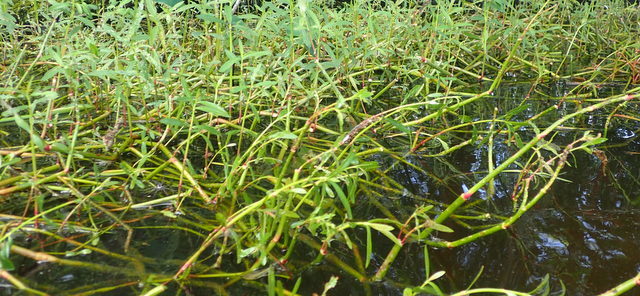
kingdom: Plantae
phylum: Tracheophyta
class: Magnoliopsida
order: Caryophyllales
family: Amaranthaceae
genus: Alternanthera
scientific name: Alternanthera philoxeroides
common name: Alligatorweed
